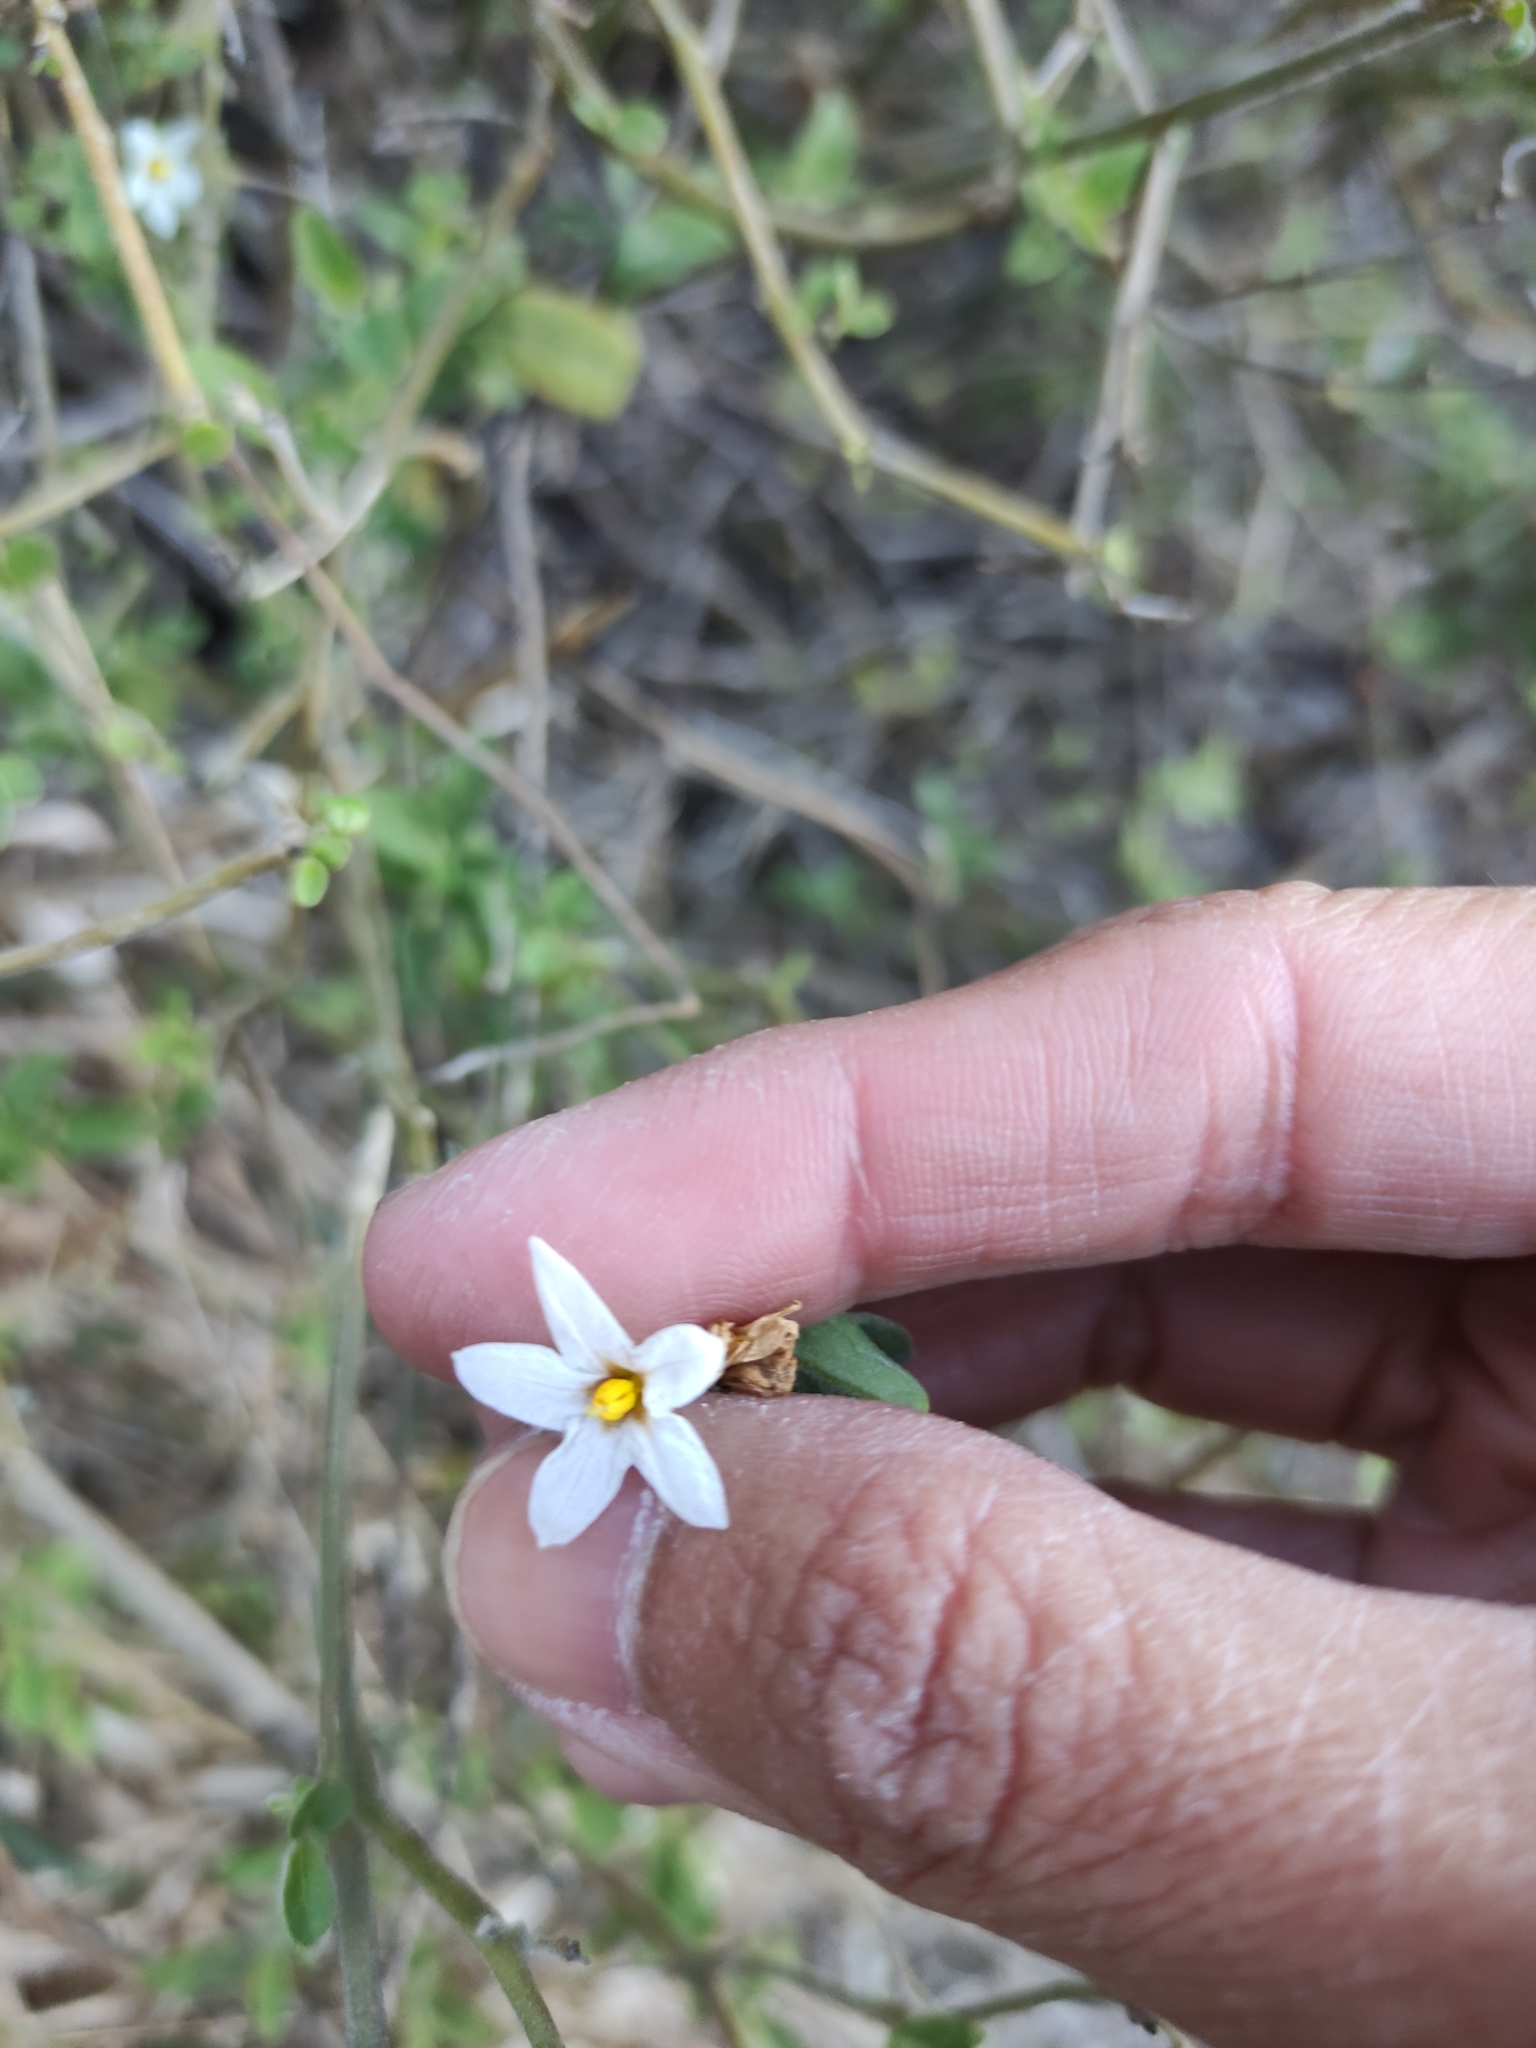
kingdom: Plantae
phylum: Tracheophyta
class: Magnoliopsida
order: Solanales
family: Solanaceae
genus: Solanum
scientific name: Solanum chenopodioides
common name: Tall nightshade
